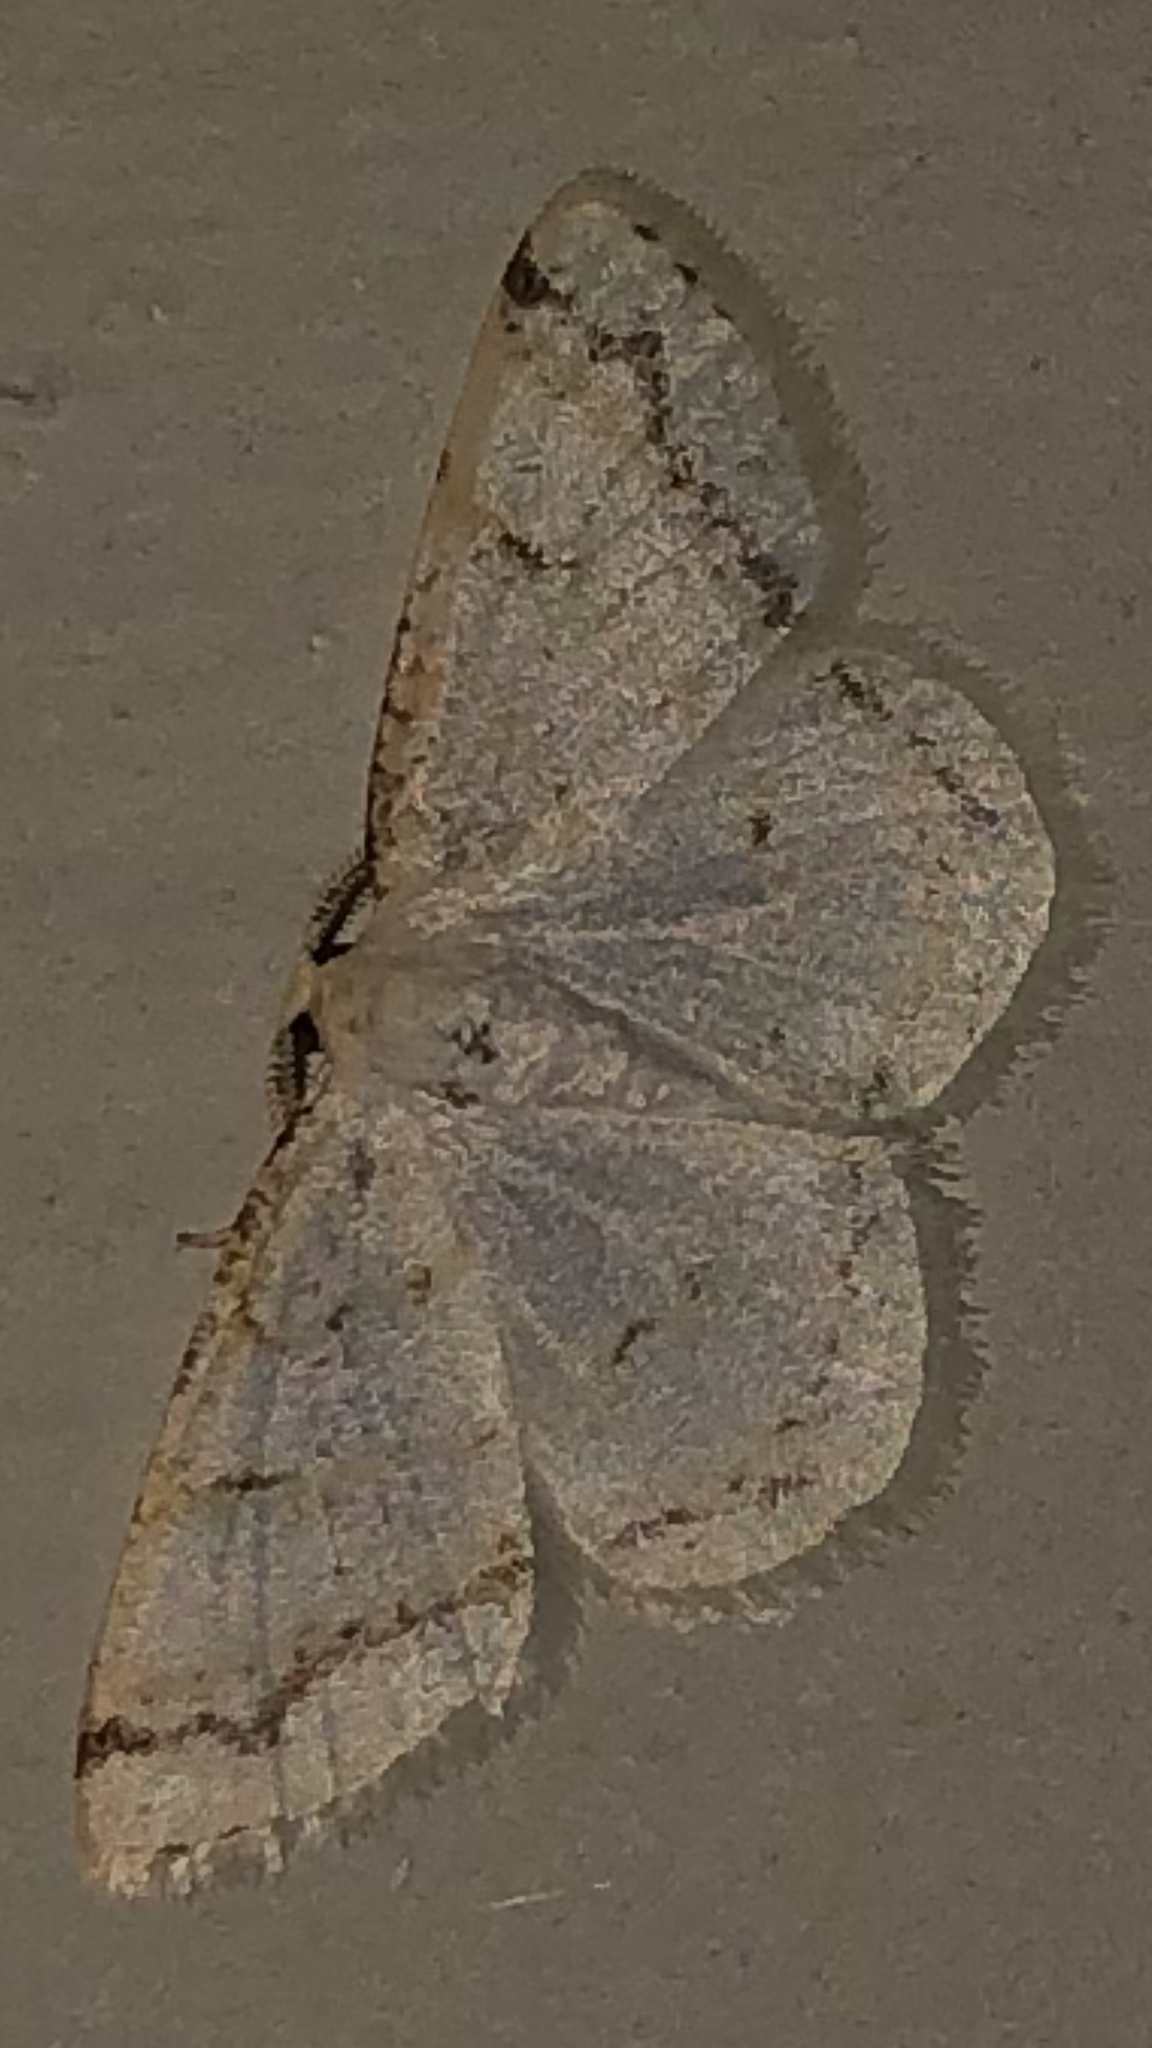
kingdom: Animalia
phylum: Arthropoda
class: Insecta
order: Lepidoptera
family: Geometridae
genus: Protitame
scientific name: Protitame virginalis
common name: Virgin moth
